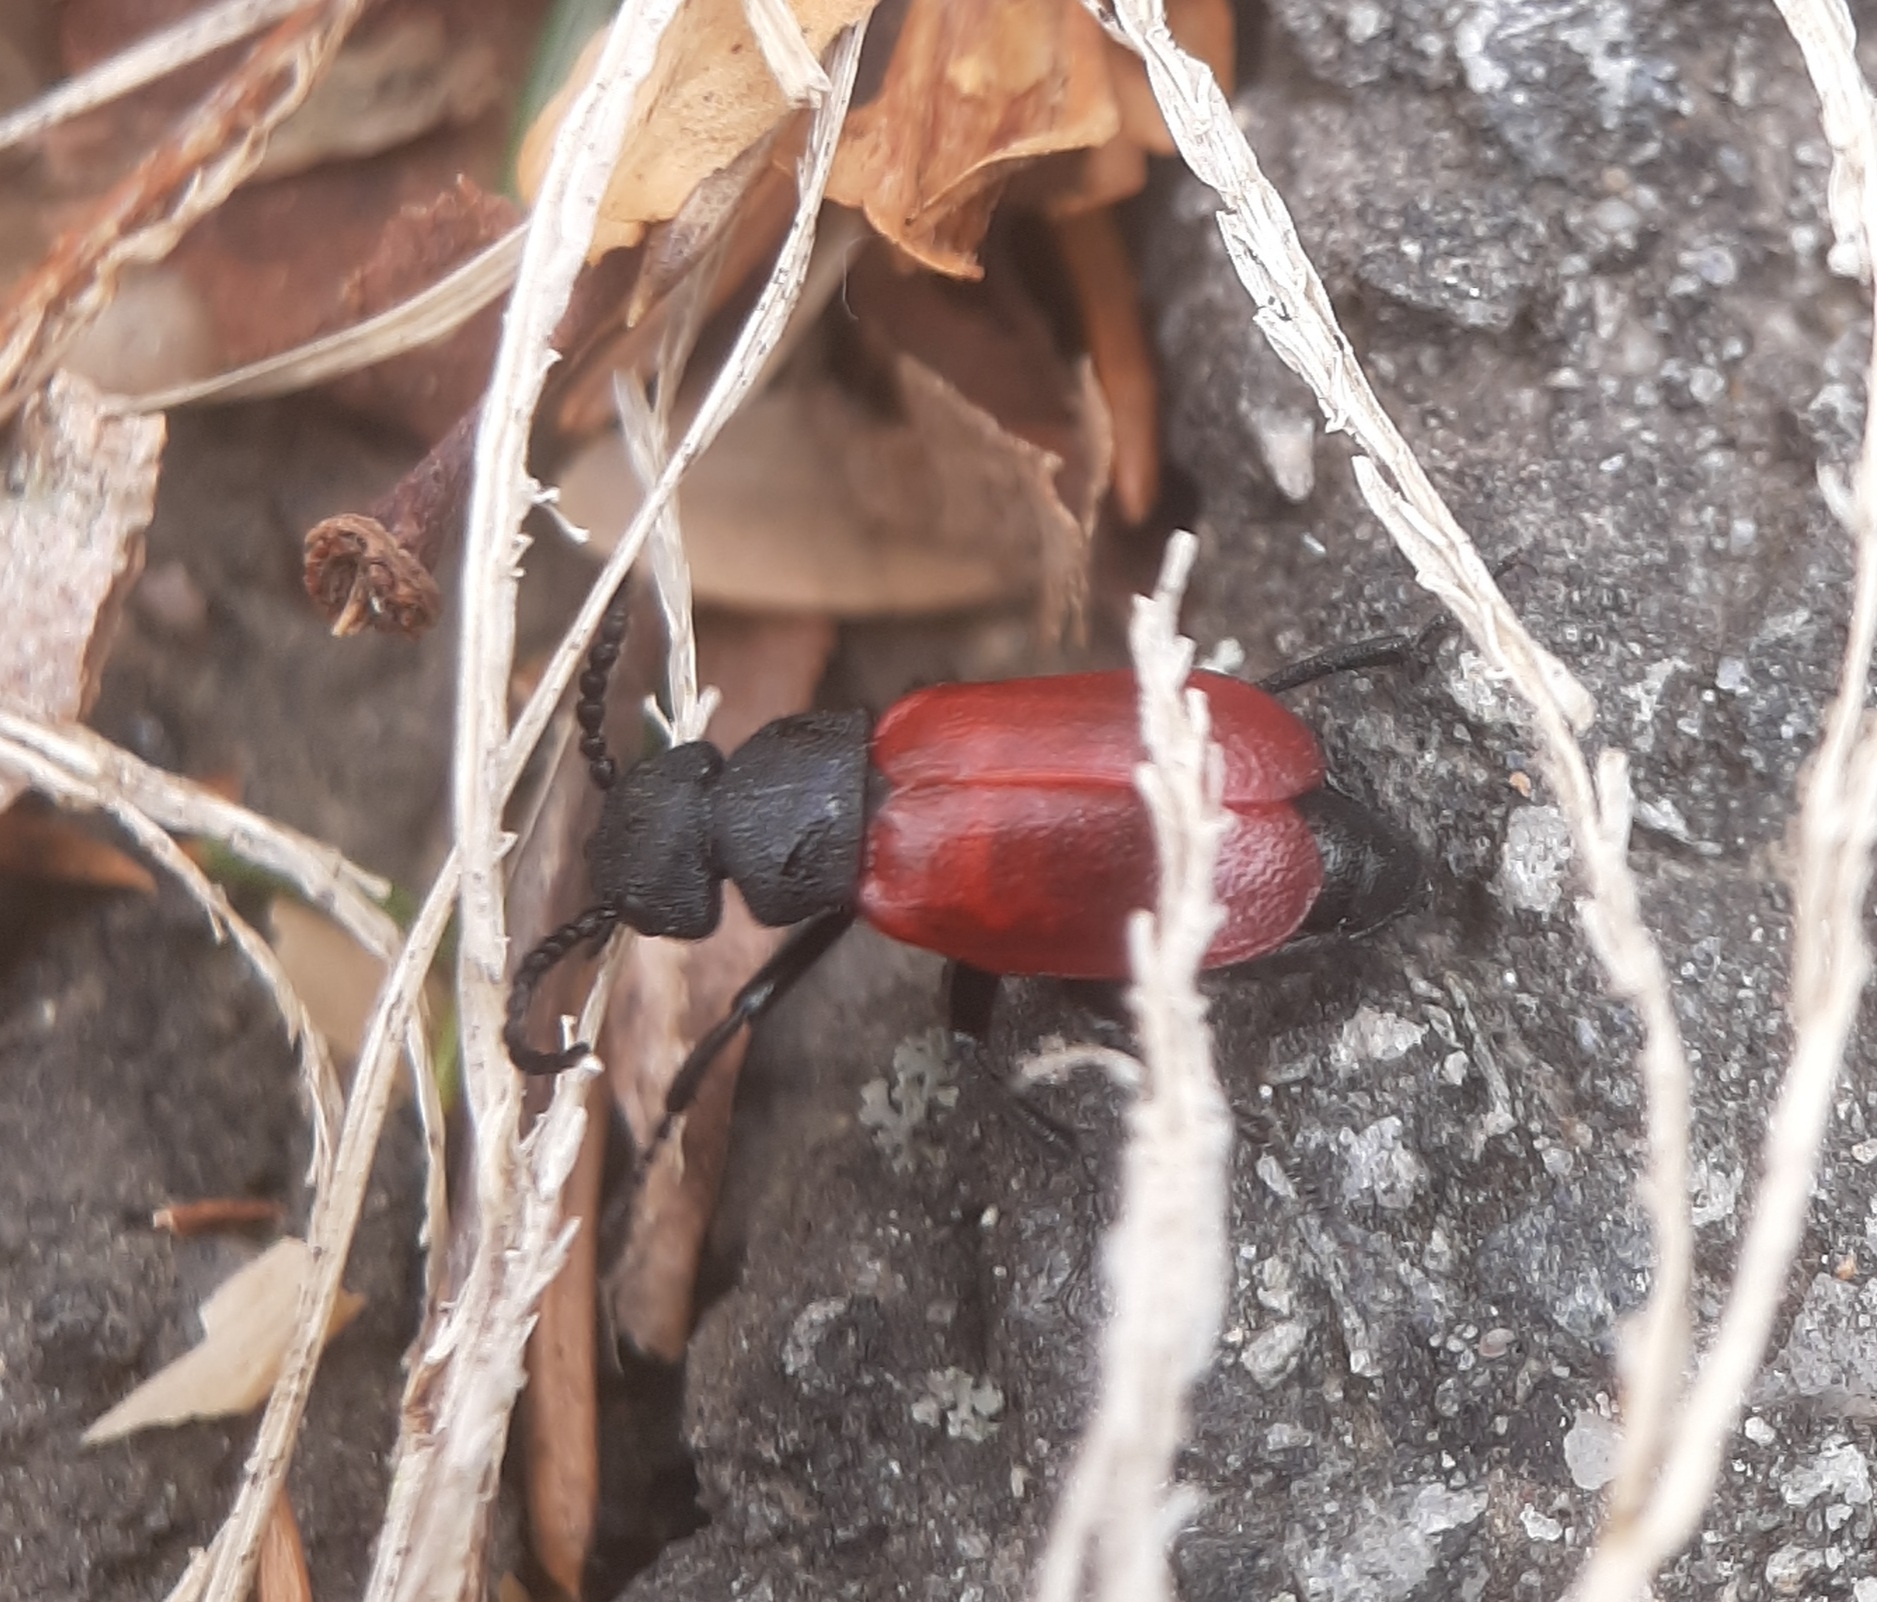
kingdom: Animalia
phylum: Arthropoda
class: Insecta
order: Coleoptera
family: Meloidae
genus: Tricrania
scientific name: Tricrania sanguinipennis
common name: Blood-winged blister beetle
